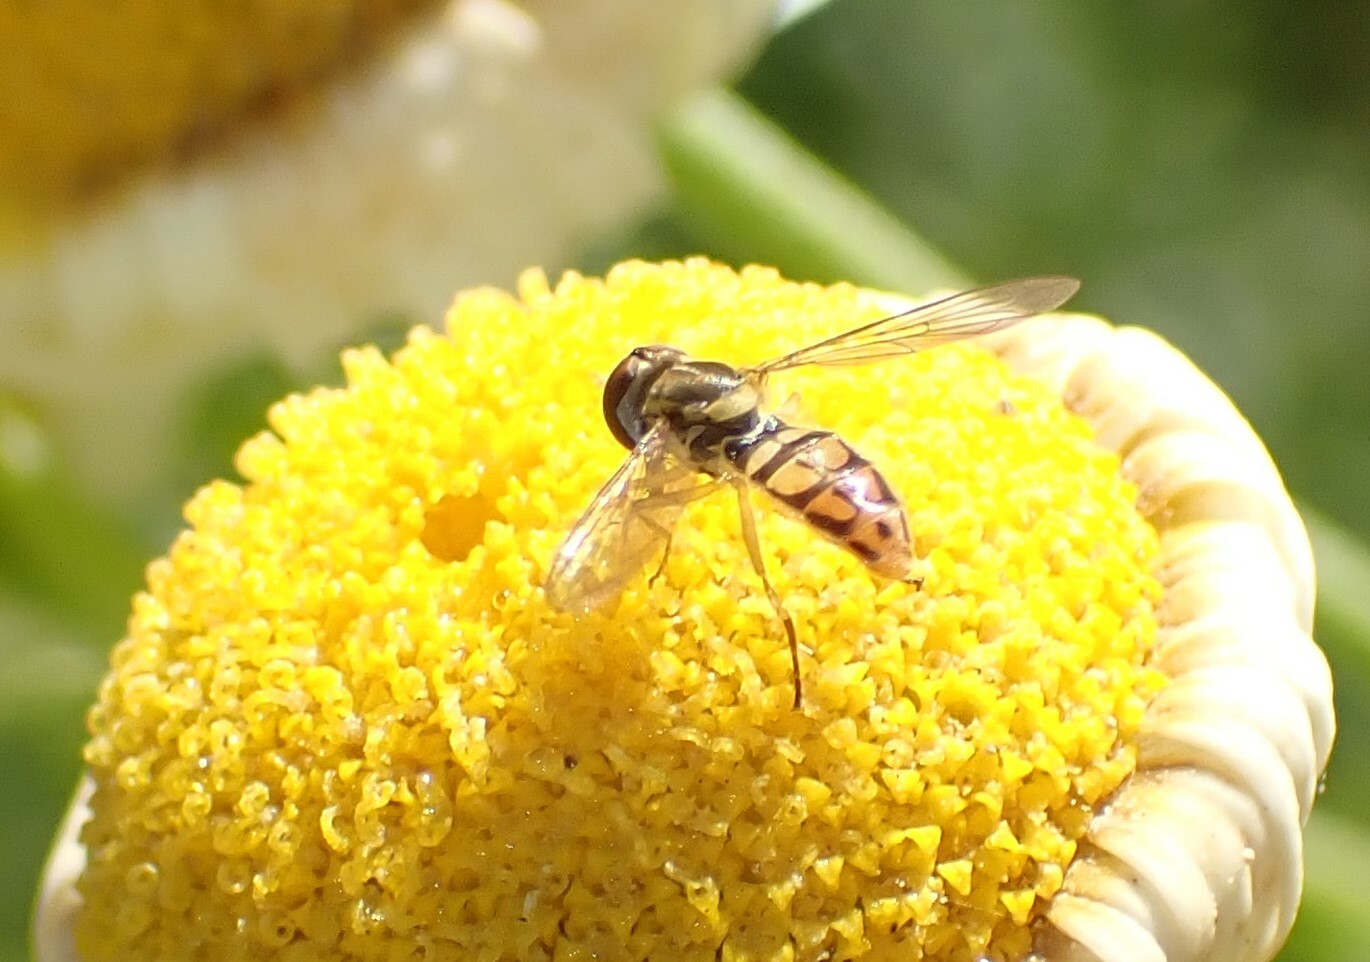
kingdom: Animalia
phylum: Arthropoda
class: Insecta
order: Diptera
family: Syrphidae
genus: Toxomerus
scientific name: Toxomerus marginatus
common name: Syrphid fly
